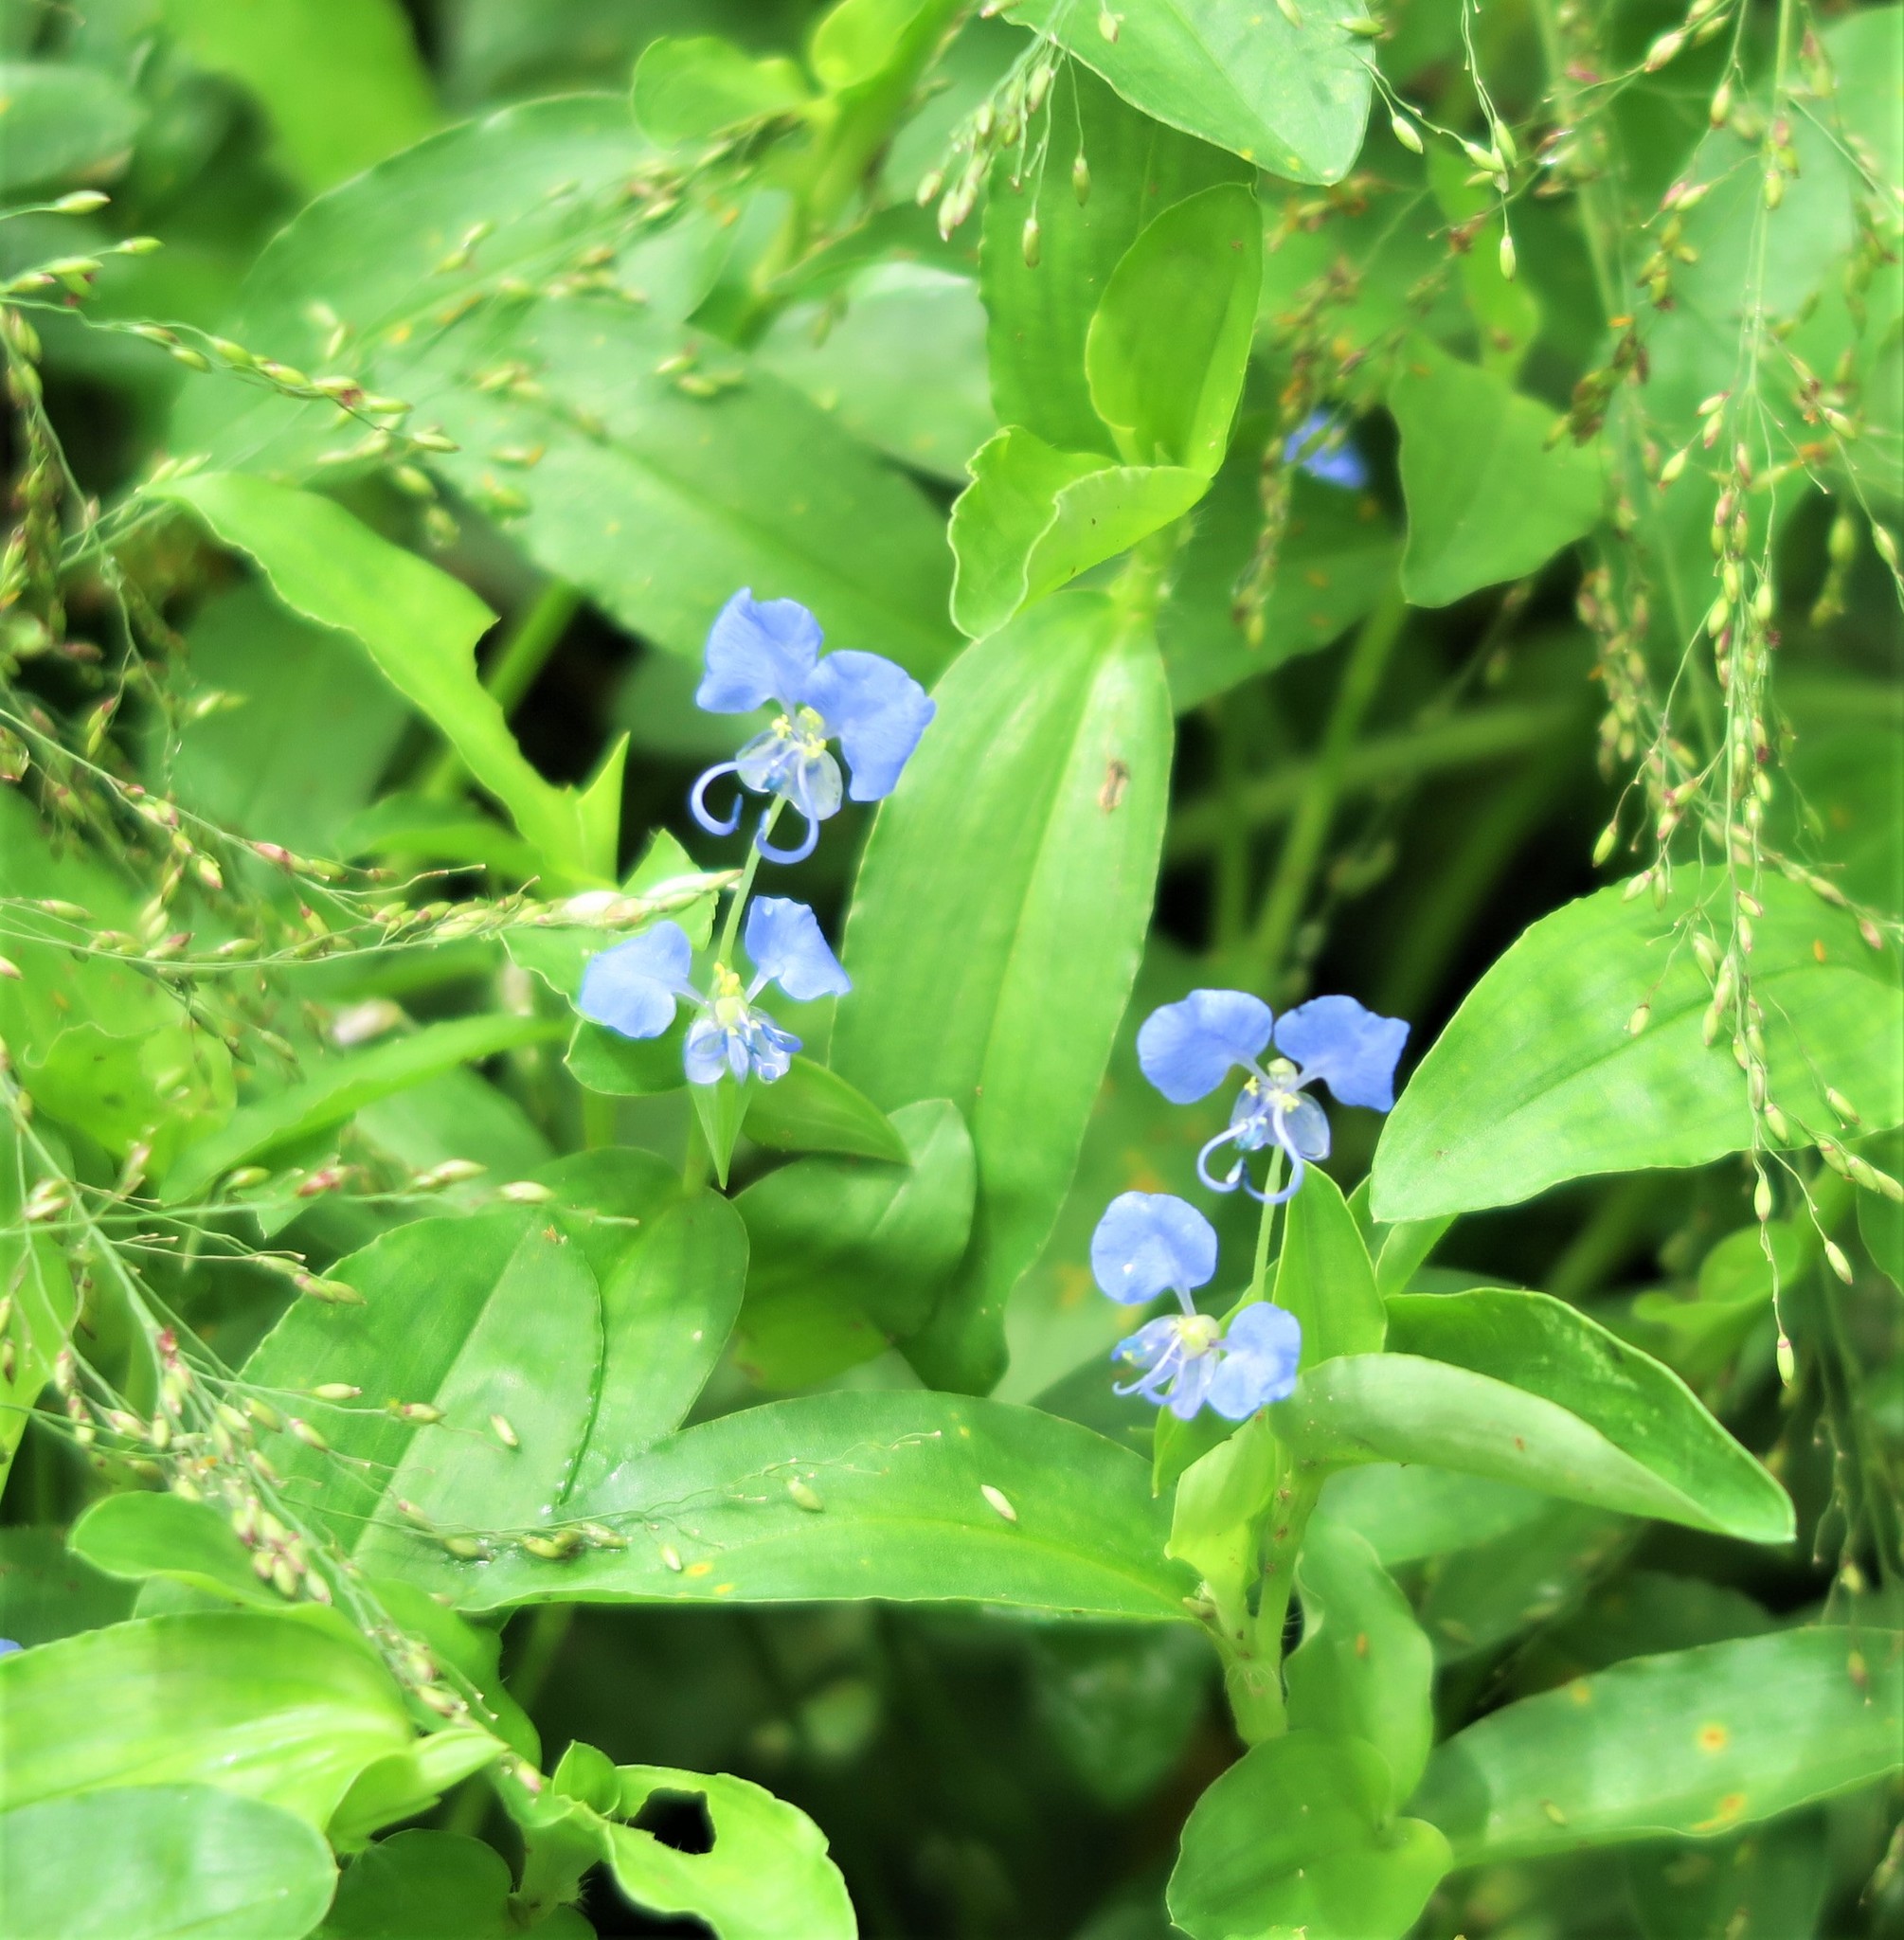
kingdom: Plantae
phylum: Tracheophyta
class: Liliopsida
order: Commelinales
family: Commelinaceae
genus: Commelina
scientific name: Commelina forskaolii
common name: Rat's ear
